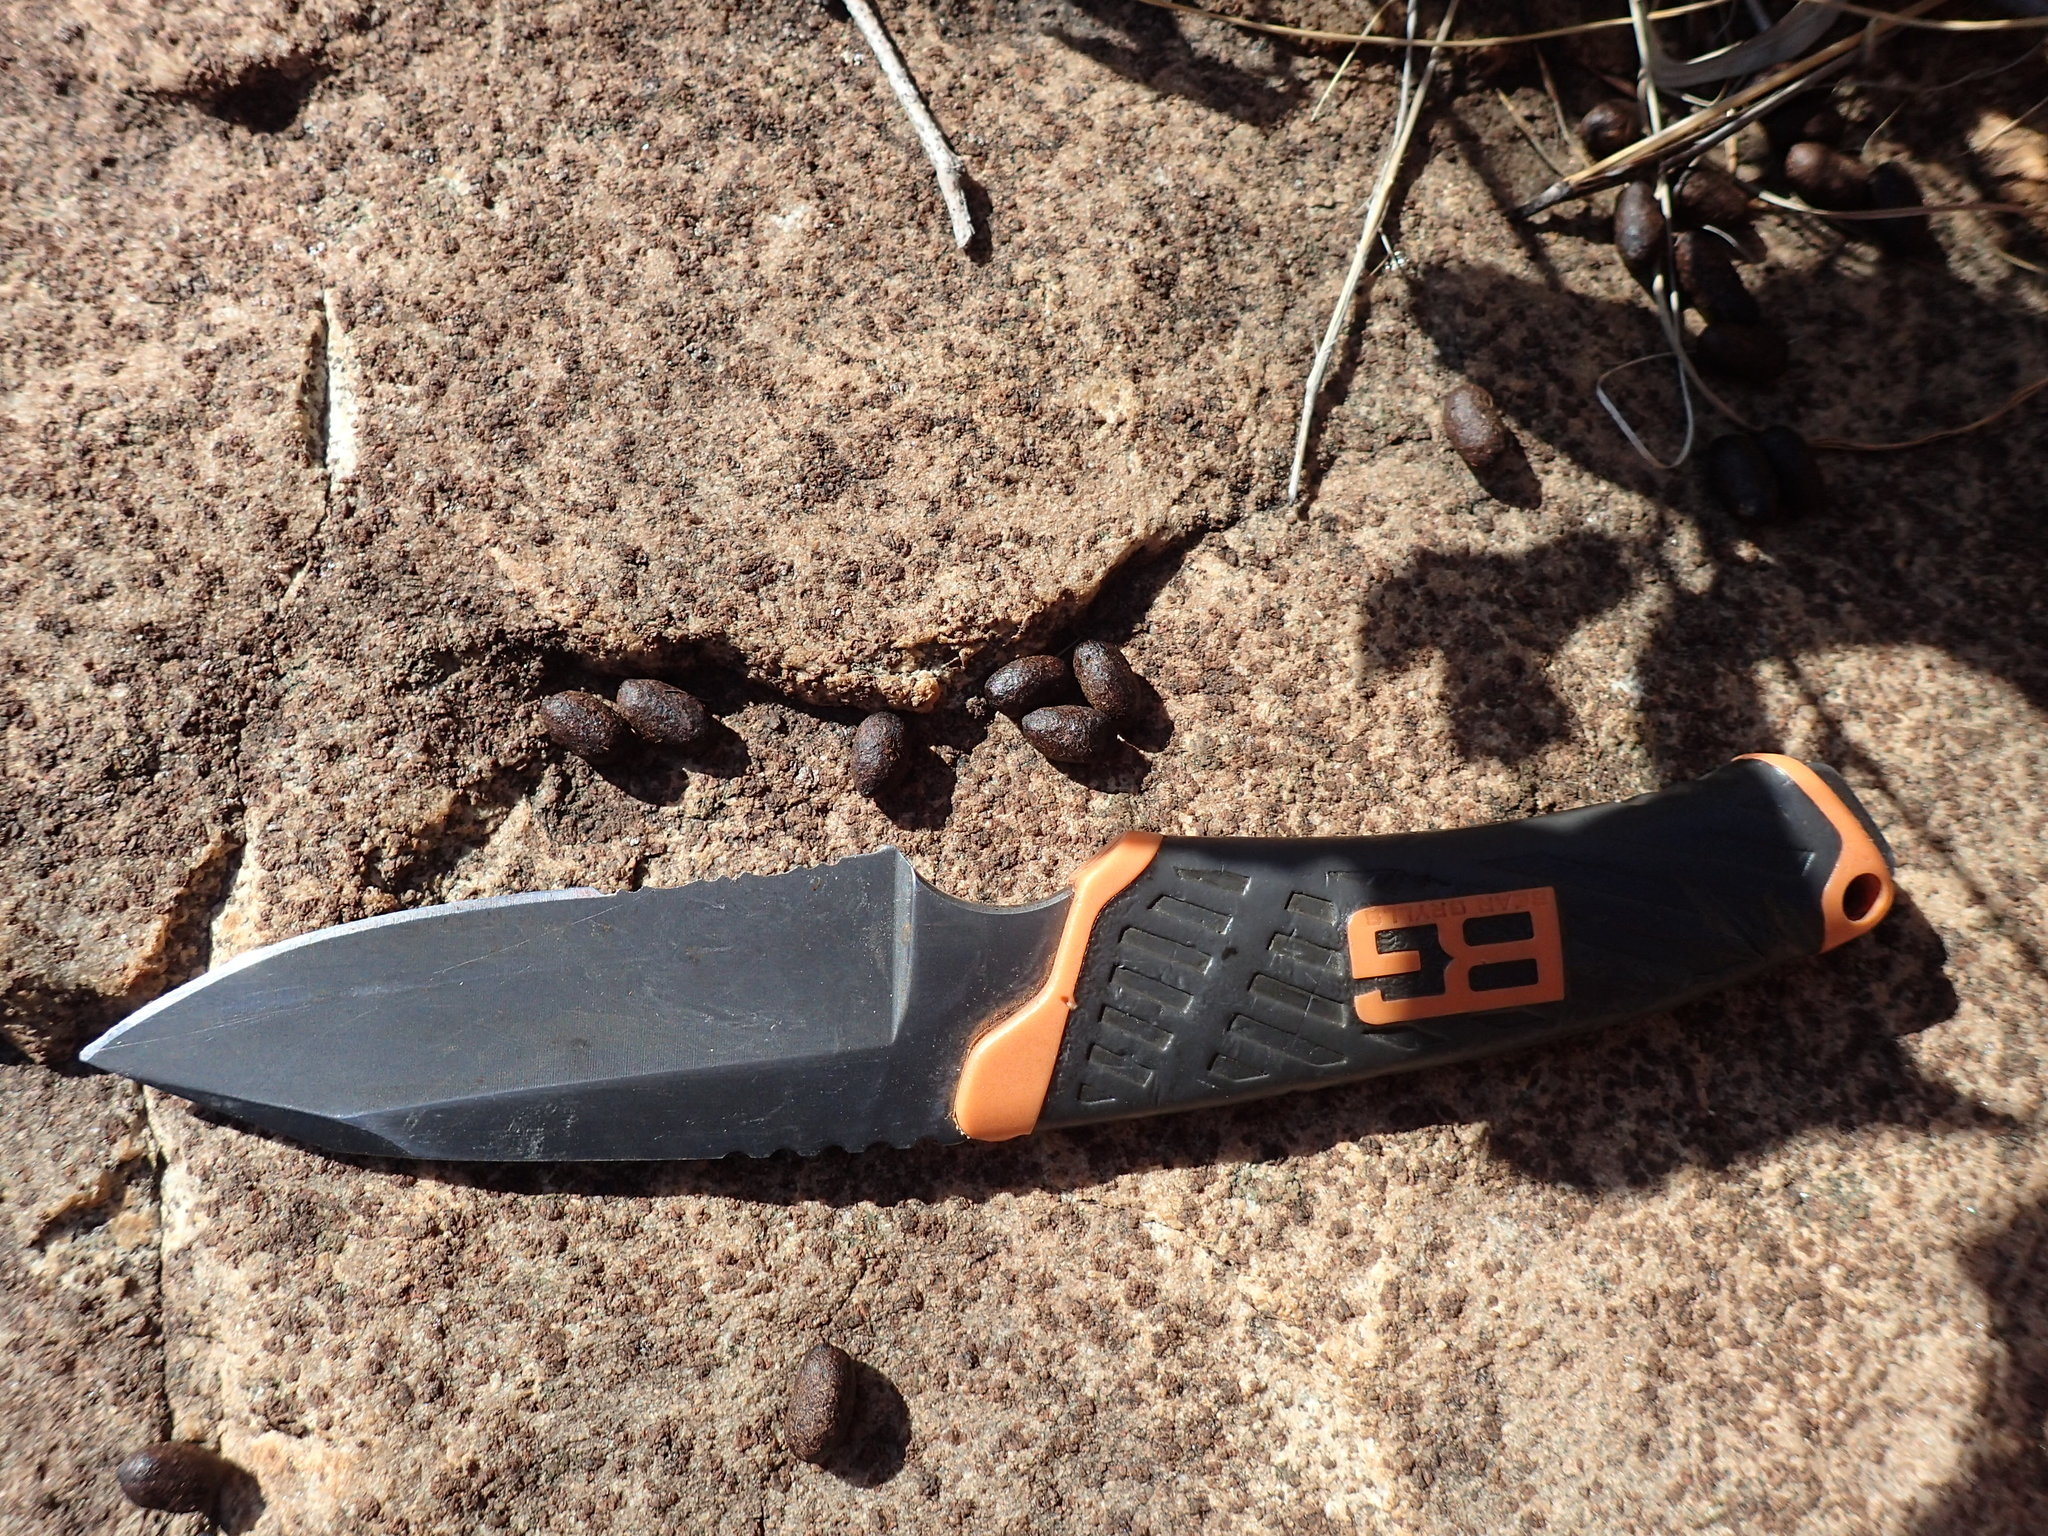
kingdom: Animalia
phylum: Chordata
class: Mammalia
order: Artiodactyla
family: Bovidae
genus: Oreotragus
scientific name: Oreotragus oreotragus
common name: Klipspringer
